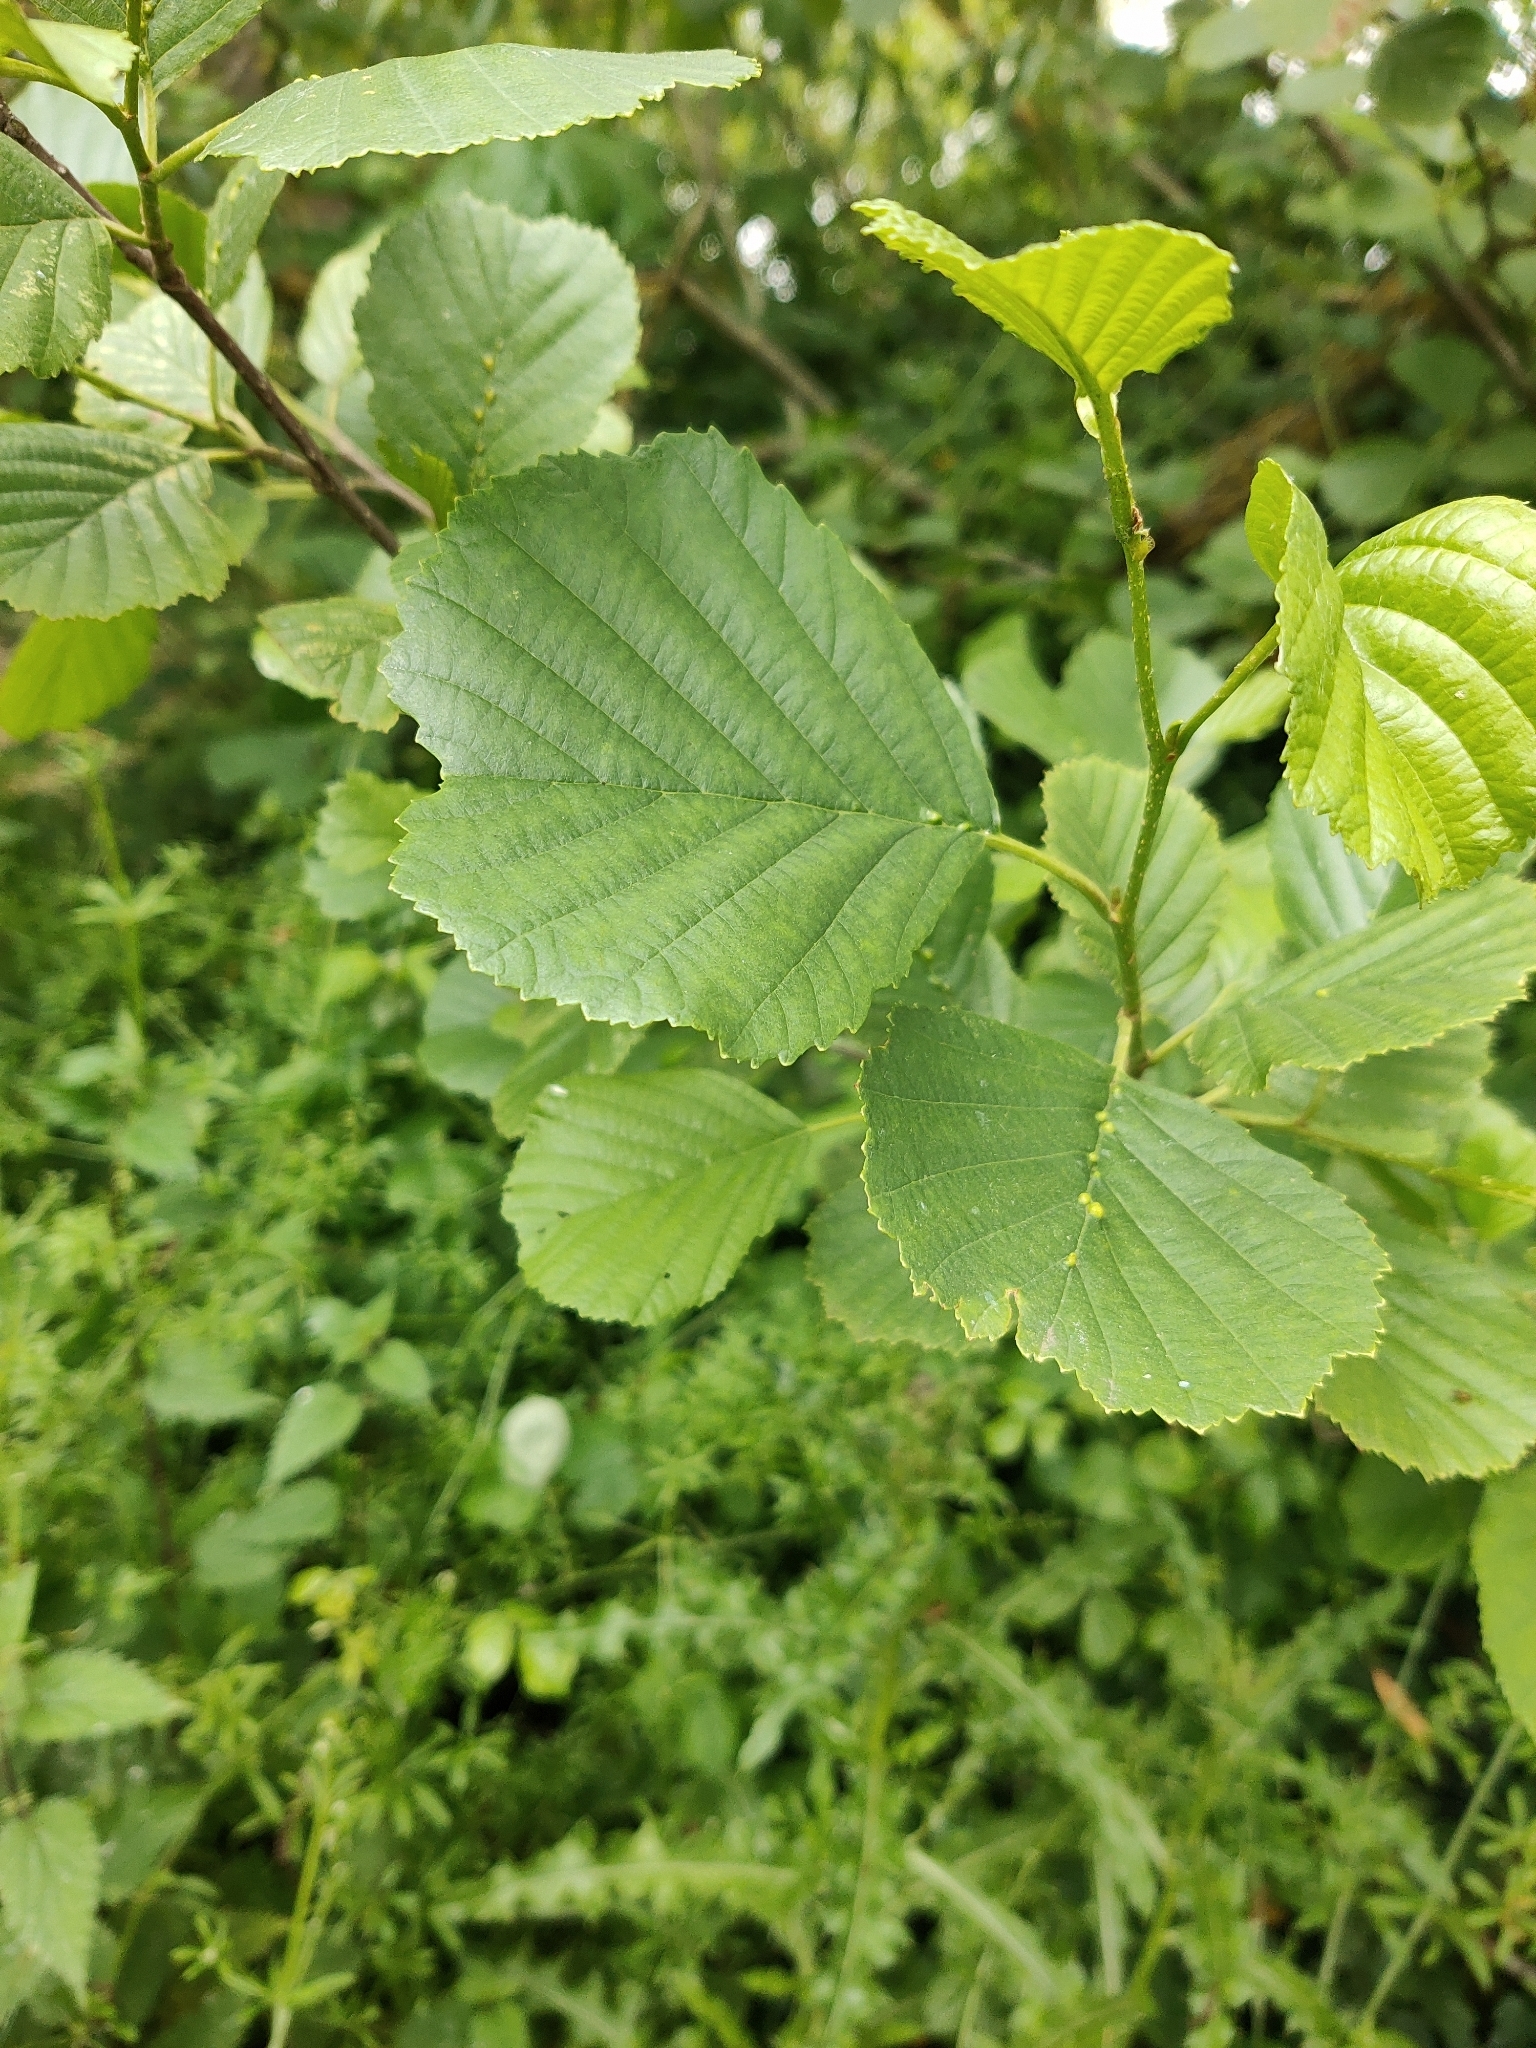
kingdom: Plantae
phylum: Tracheophyta
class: Magnoliopsida
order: Fagales
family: Betulaceae
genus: Alnus
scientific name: Alnus glutinosa
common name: Black alder
